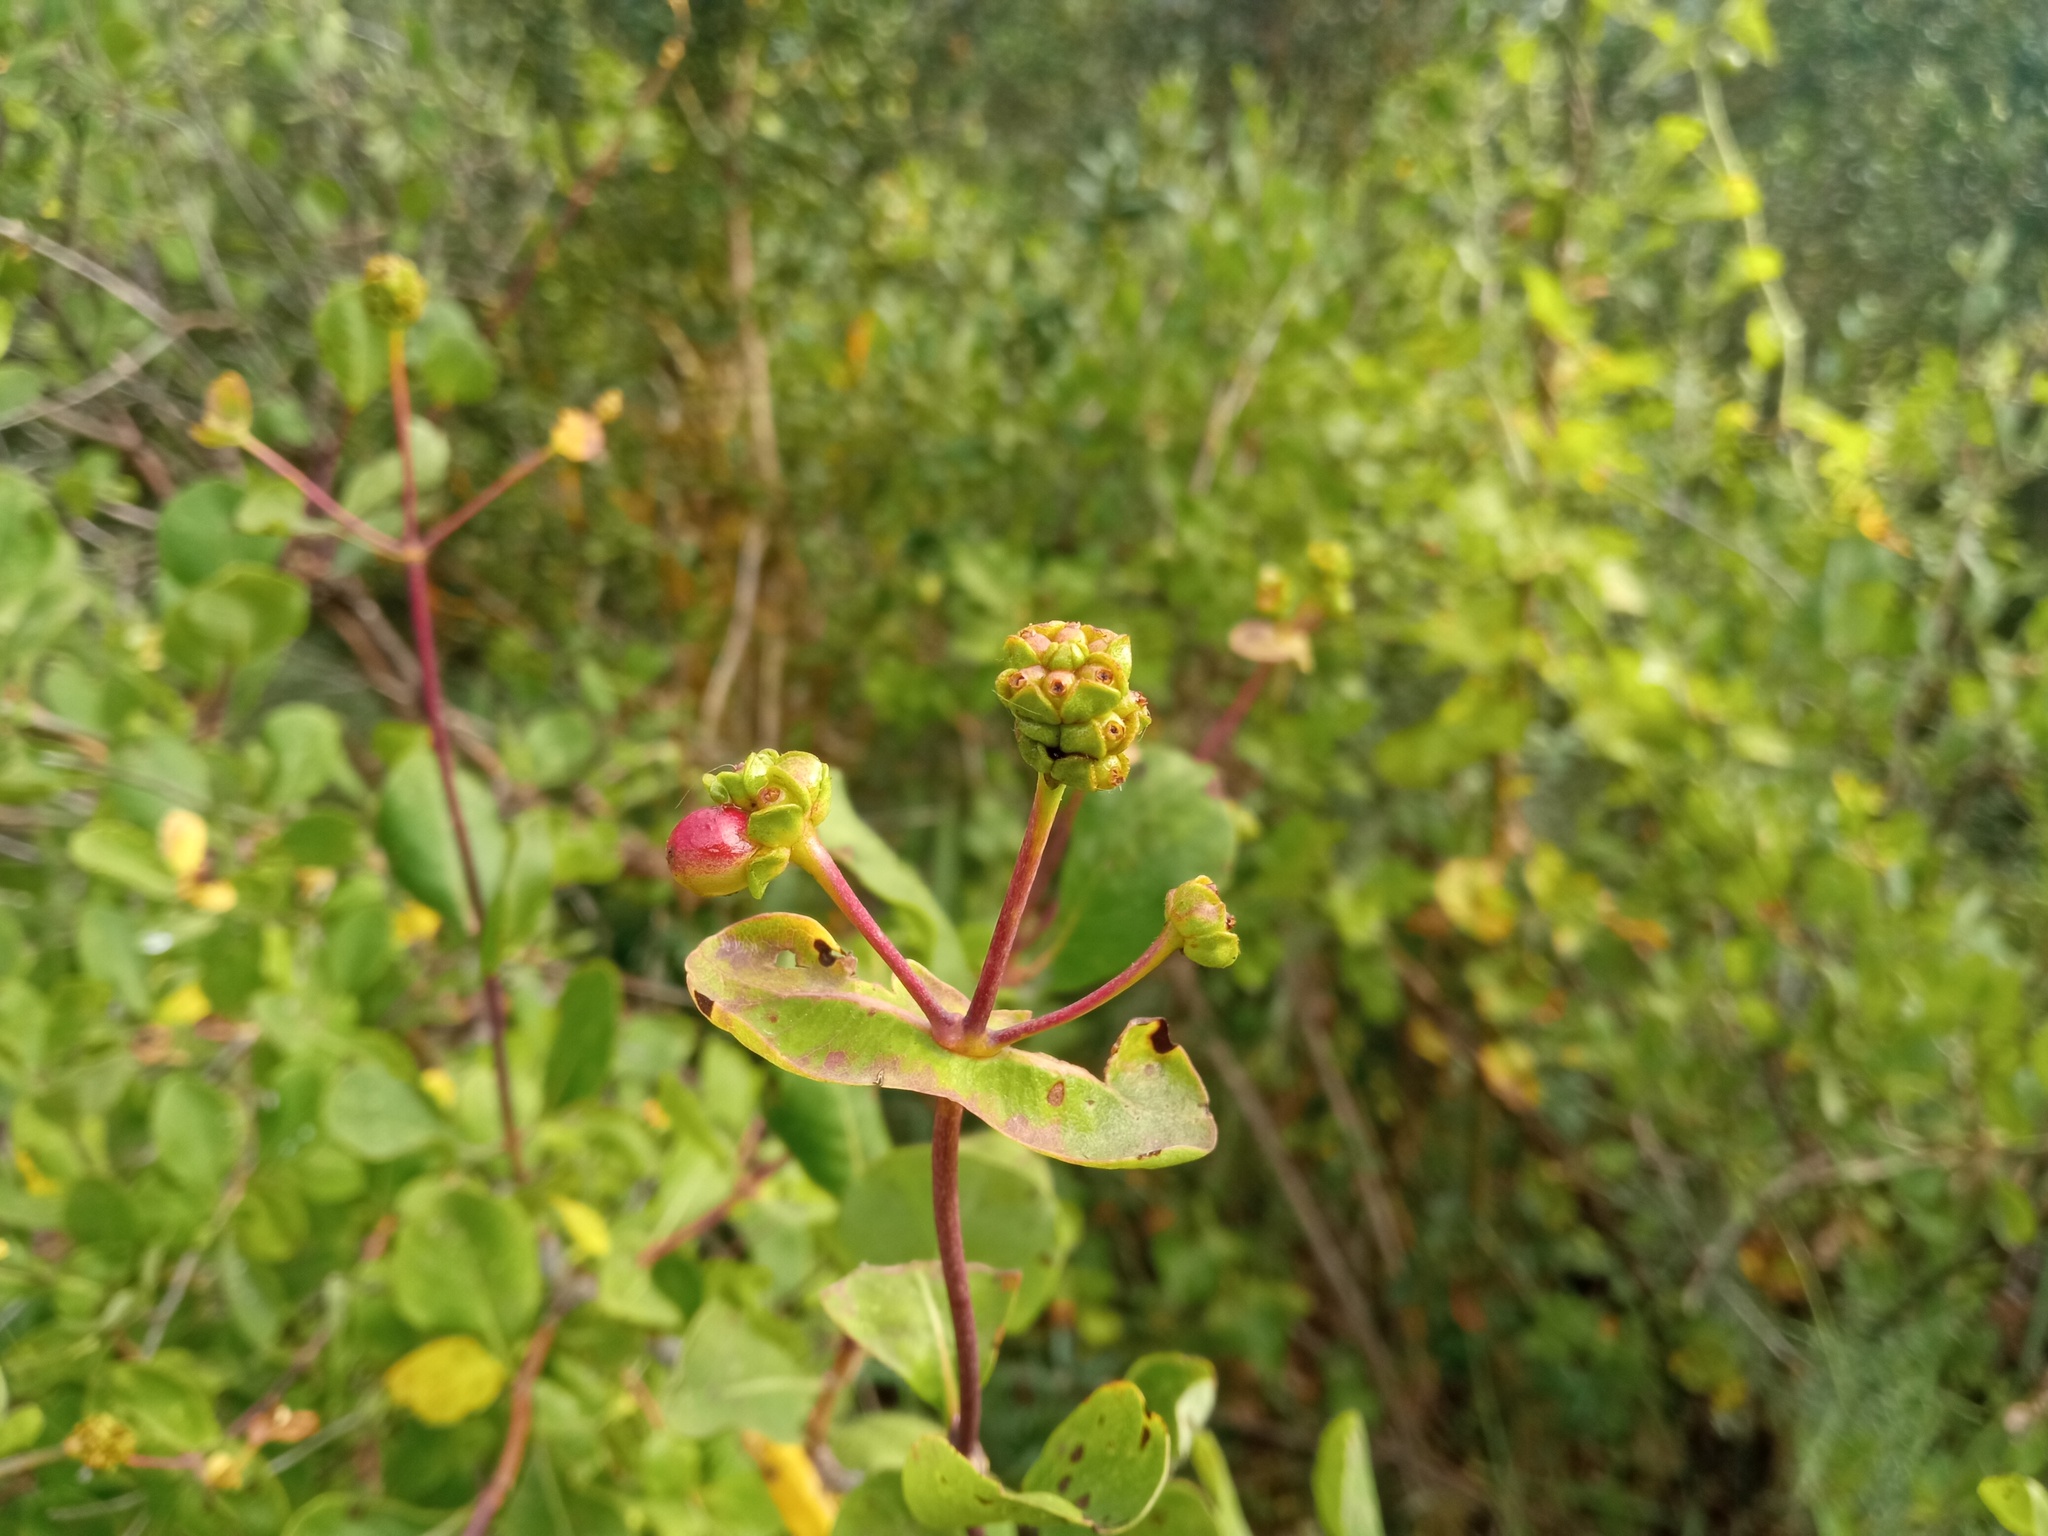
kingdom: Plantae
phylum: Tracheophyta
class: Magnoliopsida
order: Dipsacales
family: Caprifoliaceae
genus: Lonicera
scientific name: Lonicera etrusca
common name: Etruscan honeysuckle
